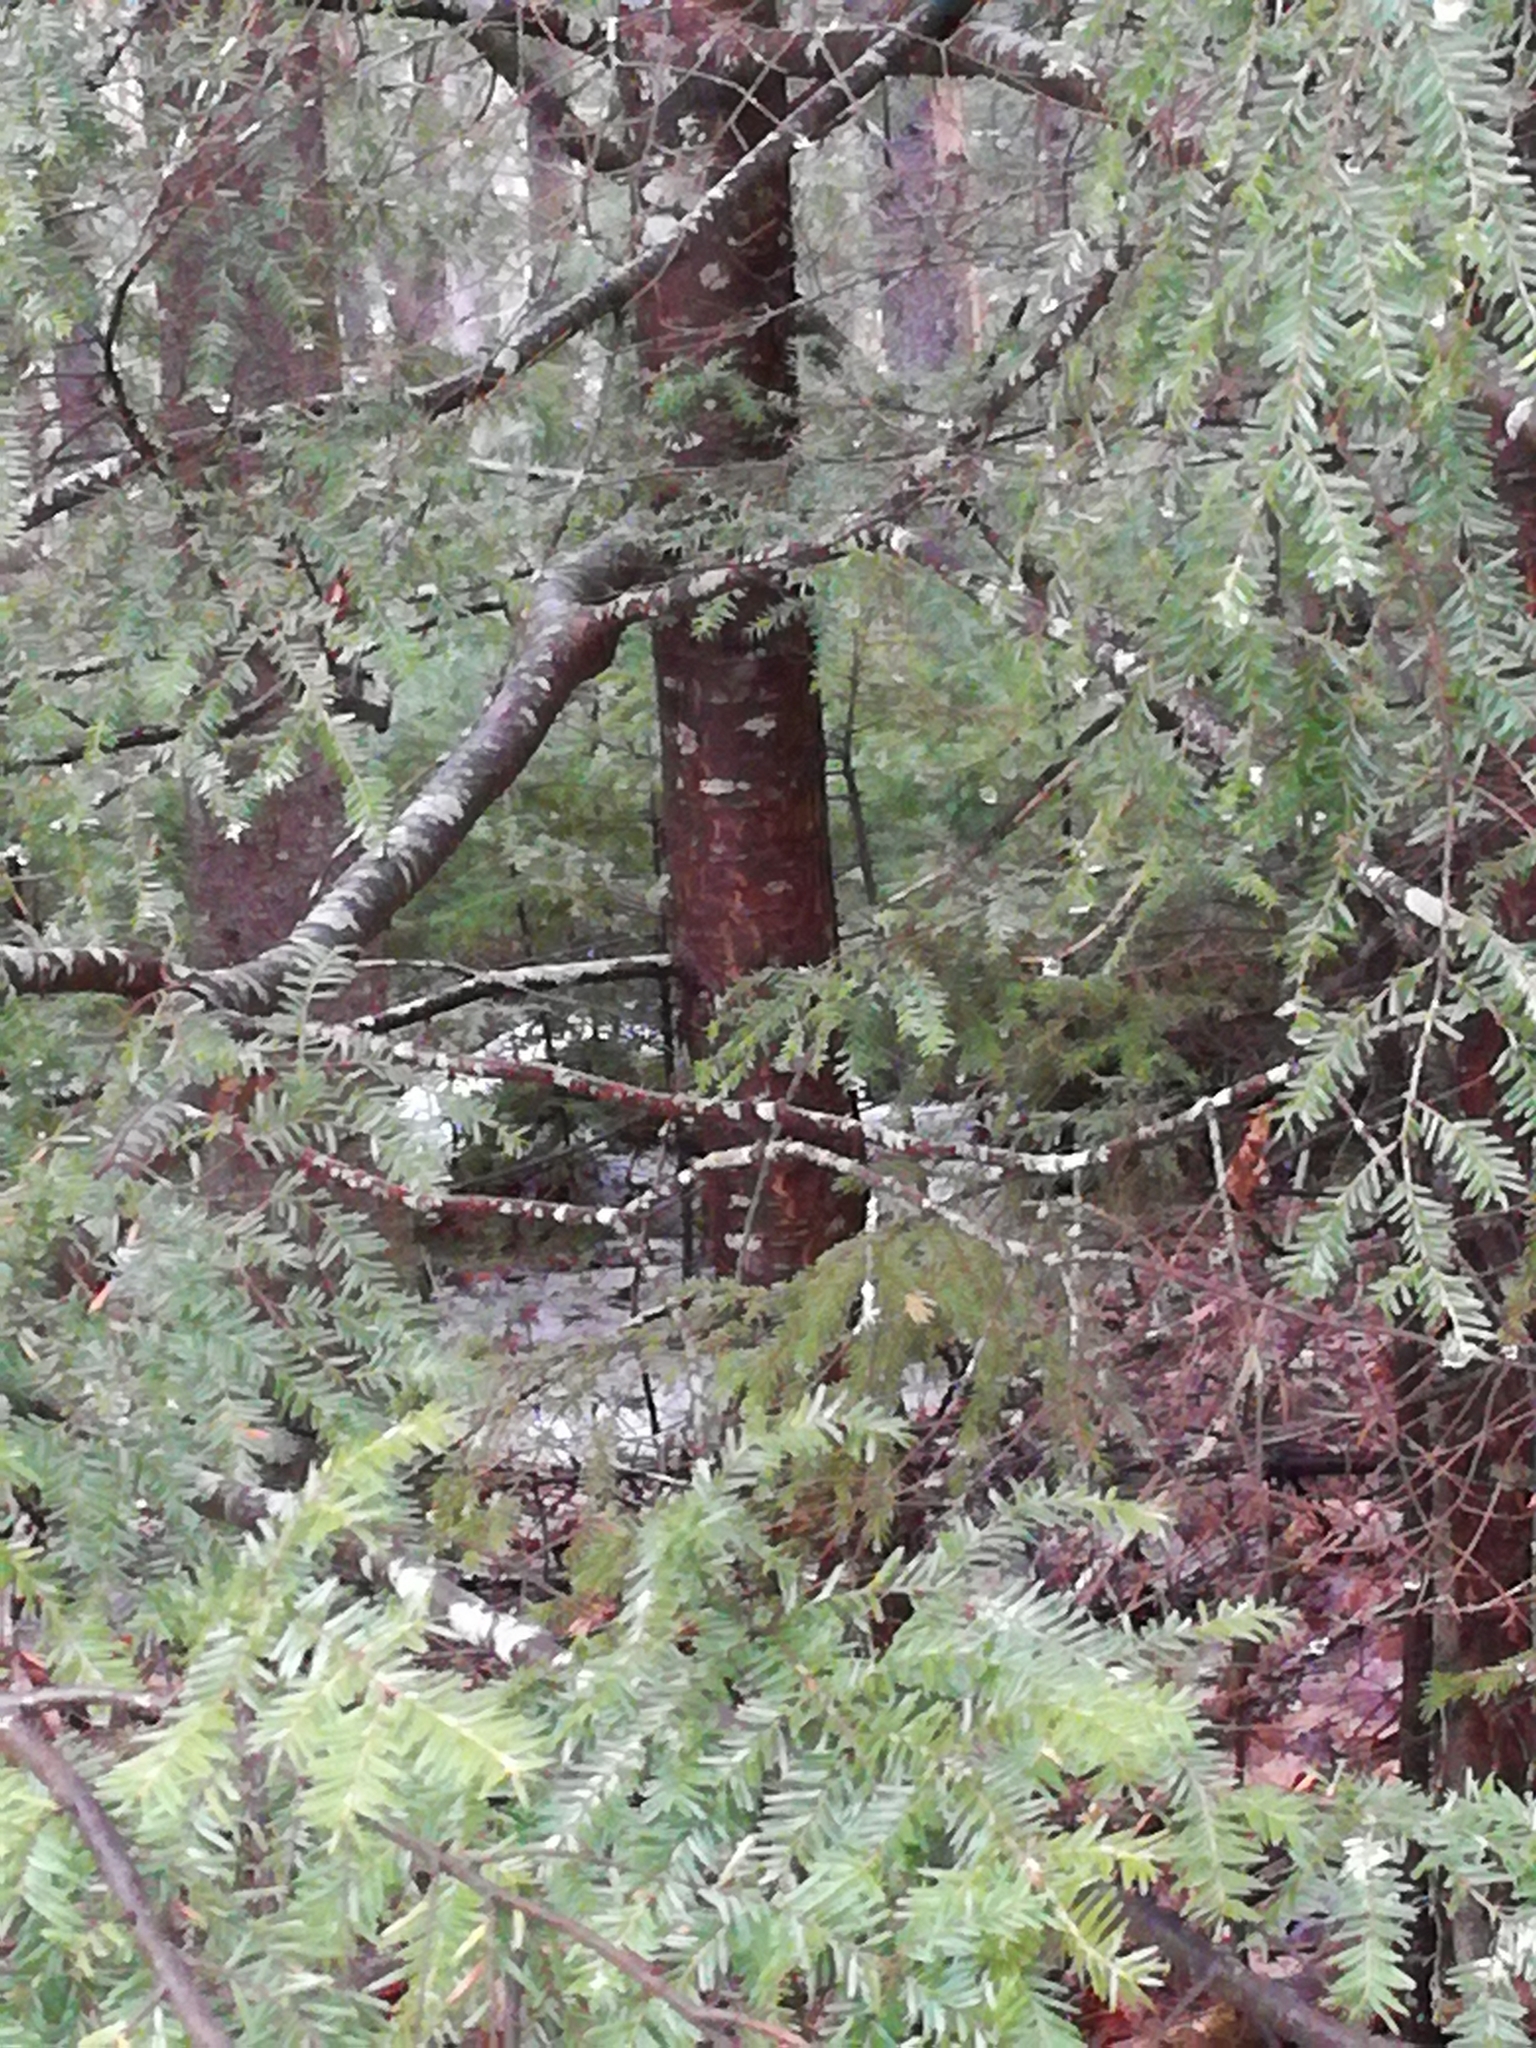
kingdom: Plantae
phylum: Tracheophyta
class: Pinopsida
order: Pinales
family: Pinaceae
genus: Tsuga
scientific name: Tsuga canadensis
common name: Eastern hemlock
